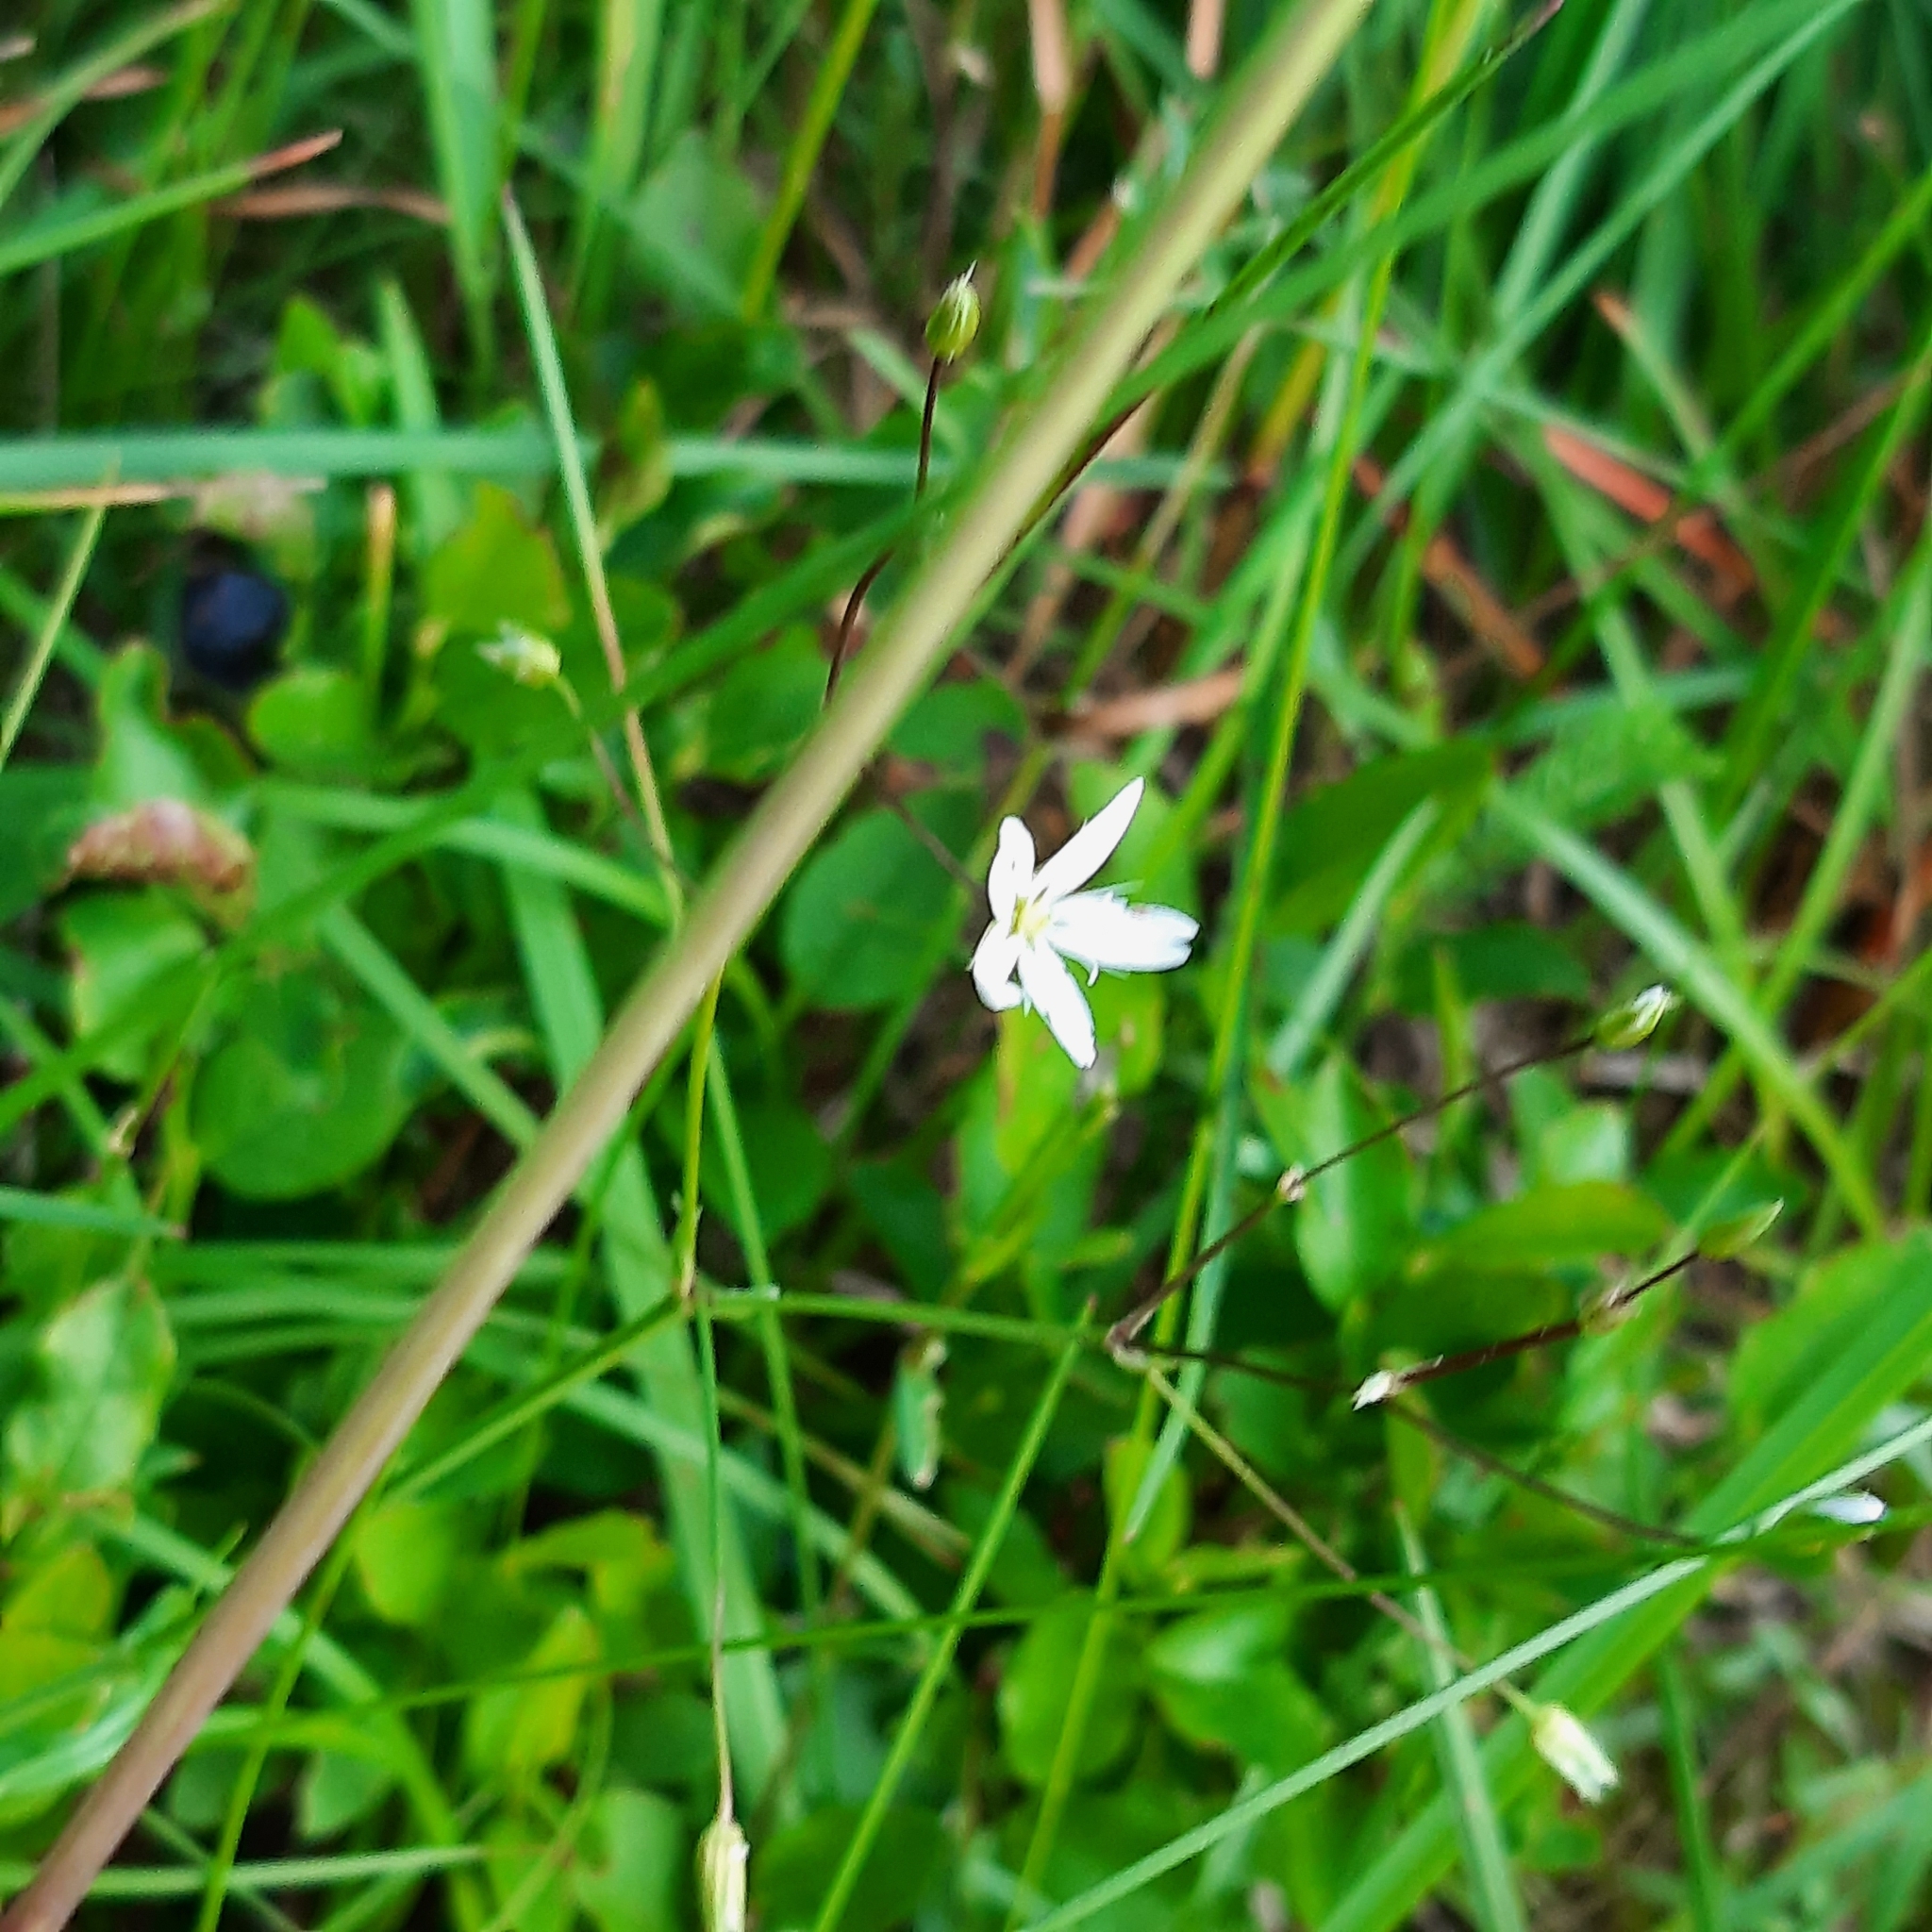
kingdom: Plantae
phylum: Tracheophyta
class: Magnoliopsida
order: Caryophyllales
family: Caryophyllaceae
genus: Stellaria
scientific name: Stellaria graminea
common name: Grass-like starwort
